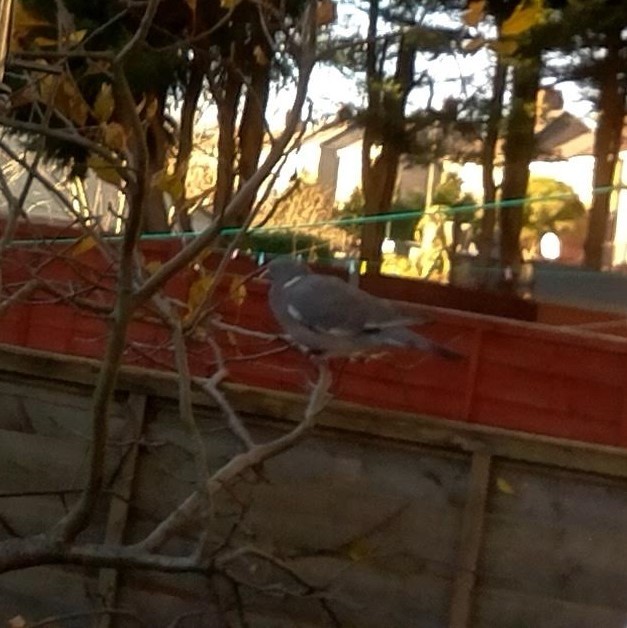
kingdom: Animalia
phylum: Chordata
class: Aves
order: Columbiformes
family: Columbidae
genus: Columba
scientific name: Columba palumbus
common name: Common wood pigeon
